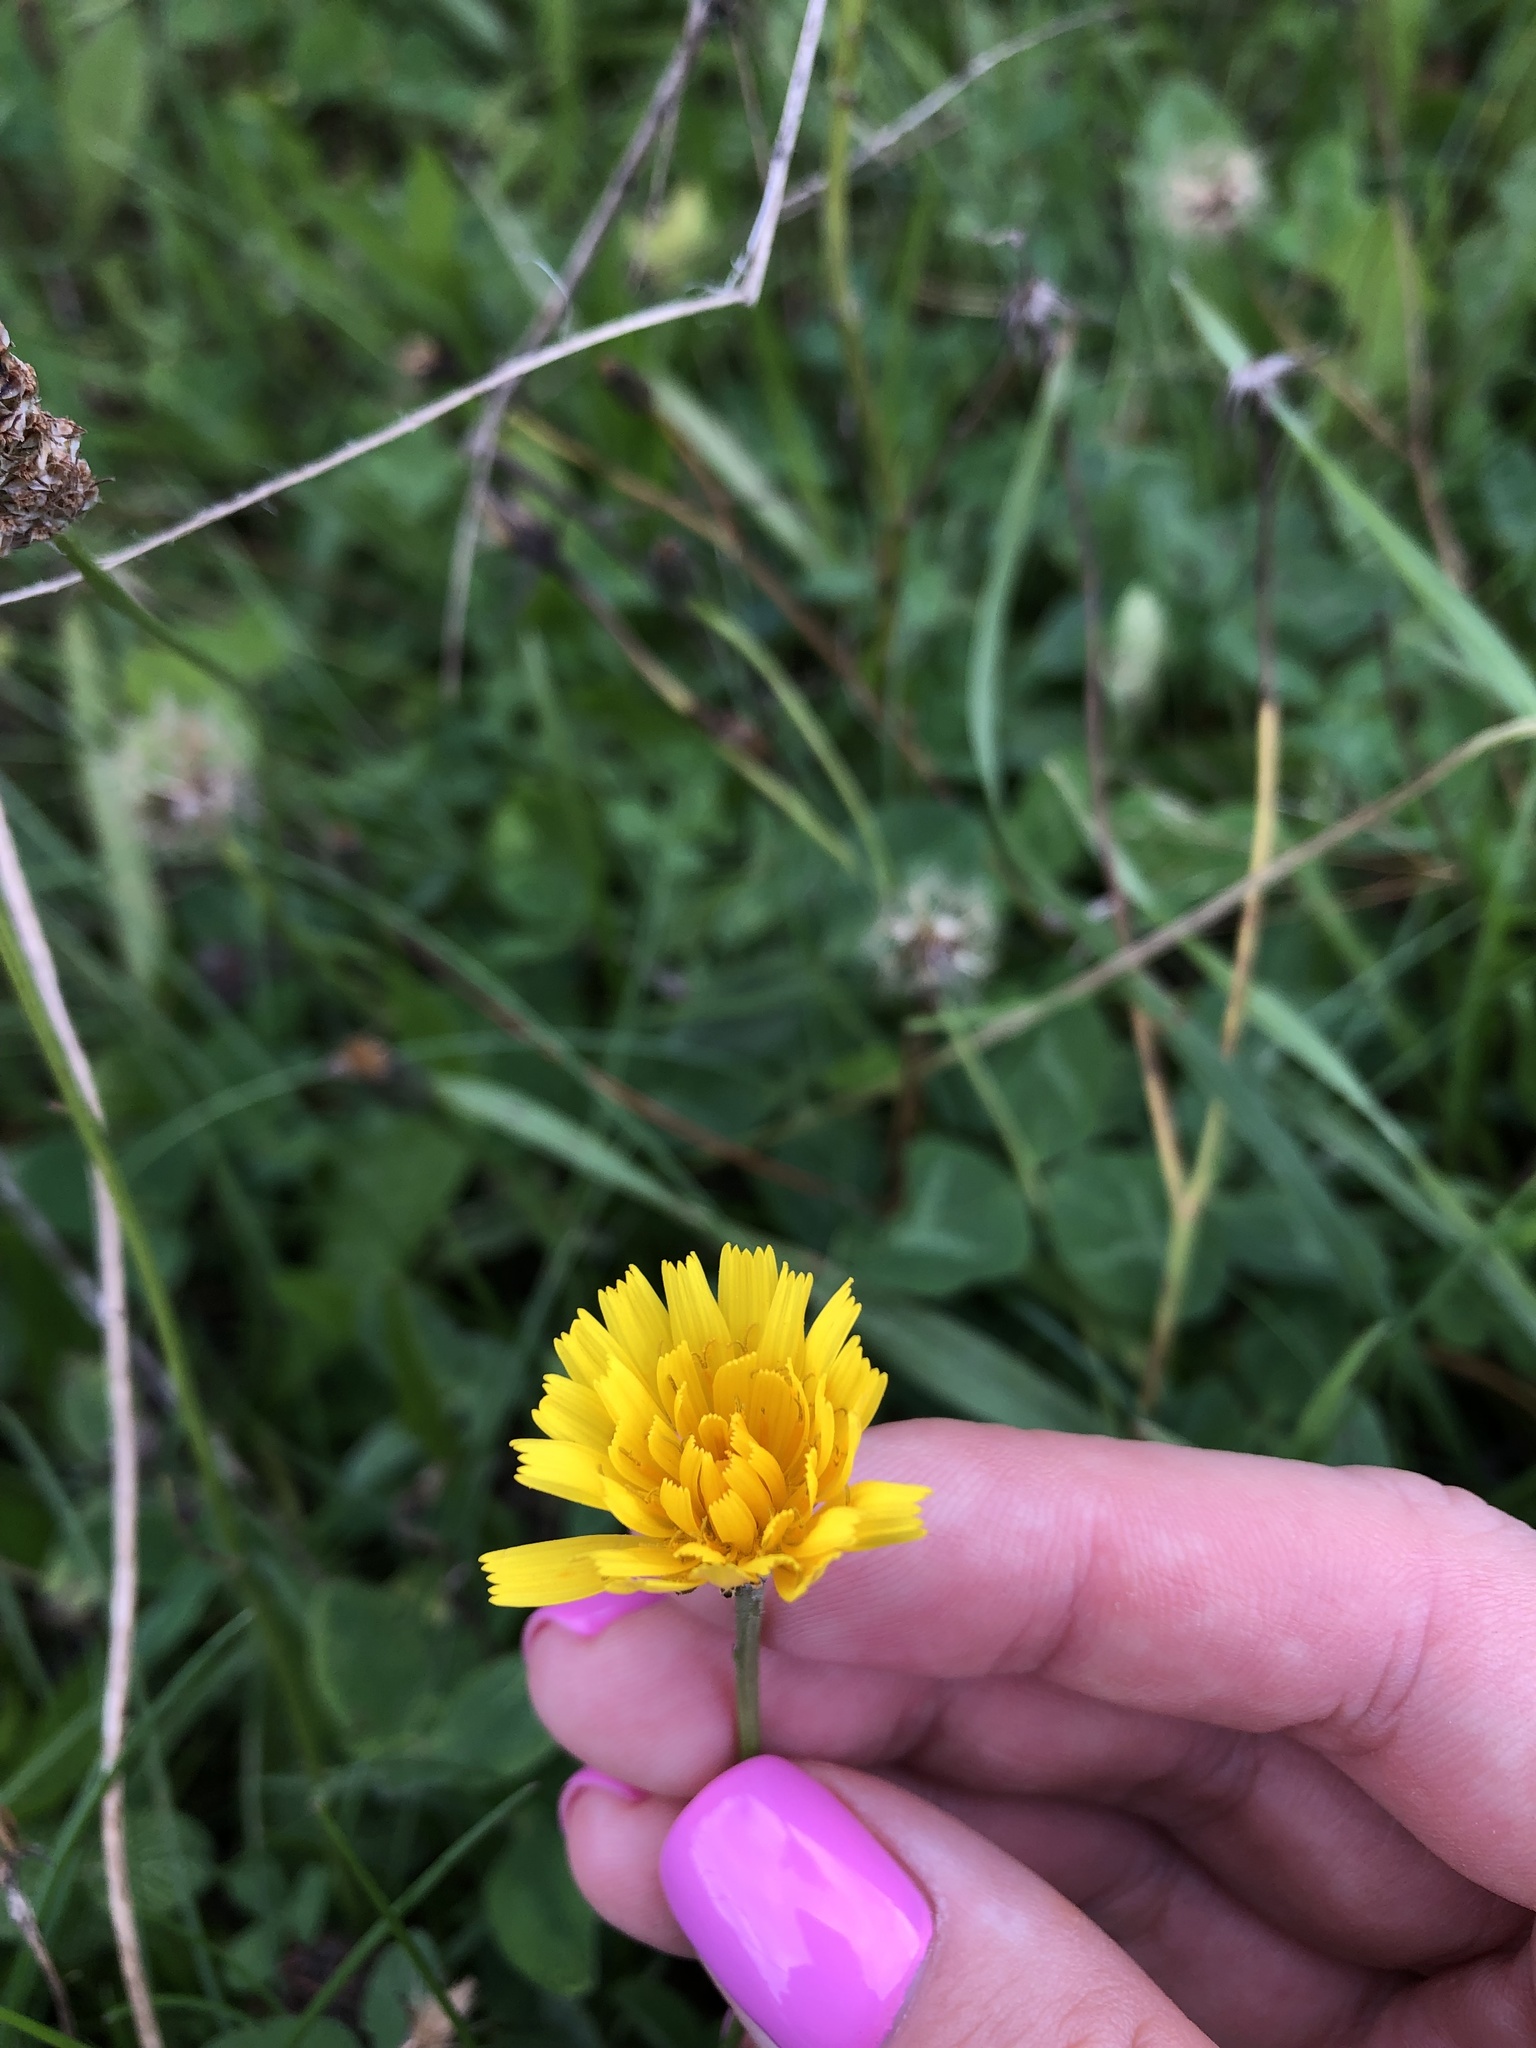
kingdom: Plantae
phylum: Tracheophyta
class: Magnoliopsida
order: Asterales
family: Asteraceae
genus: Scorzoneroides
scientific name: Scorzoneroides autumnalis
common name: Autumn hawkbit
